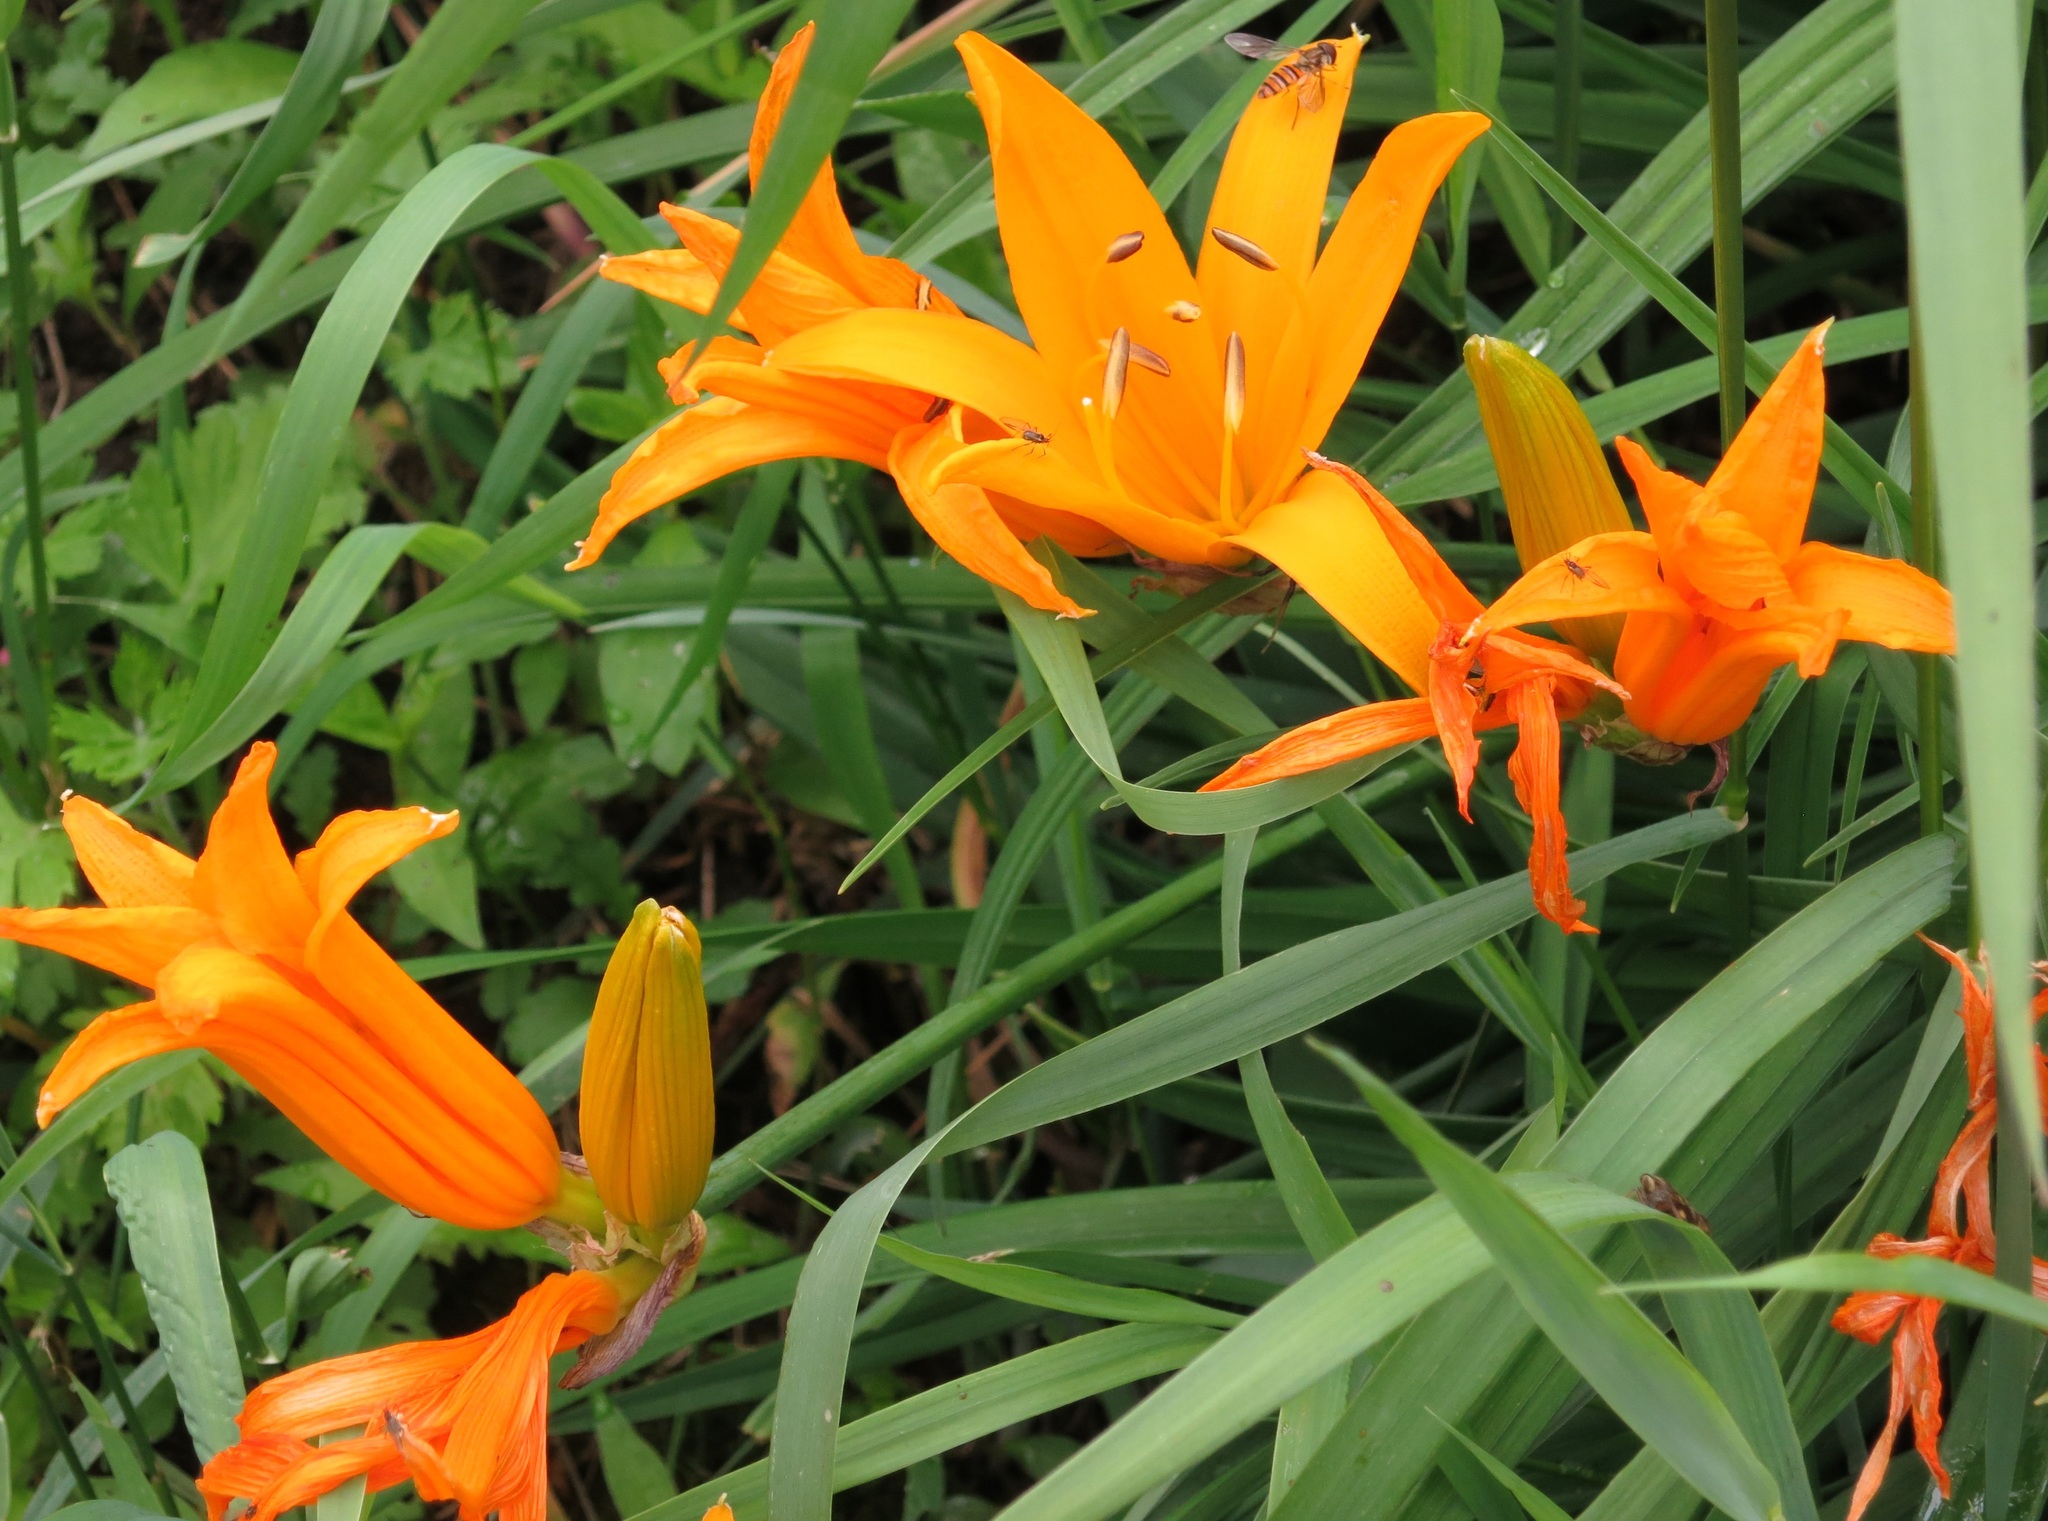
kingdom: Plantae
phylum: Tracheophyta
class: Liliopsida
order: Asparagales
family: Asphodelaceae
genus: Hemerocallis
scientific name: Hemerocallis middendorffii
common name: Amur day-lily
